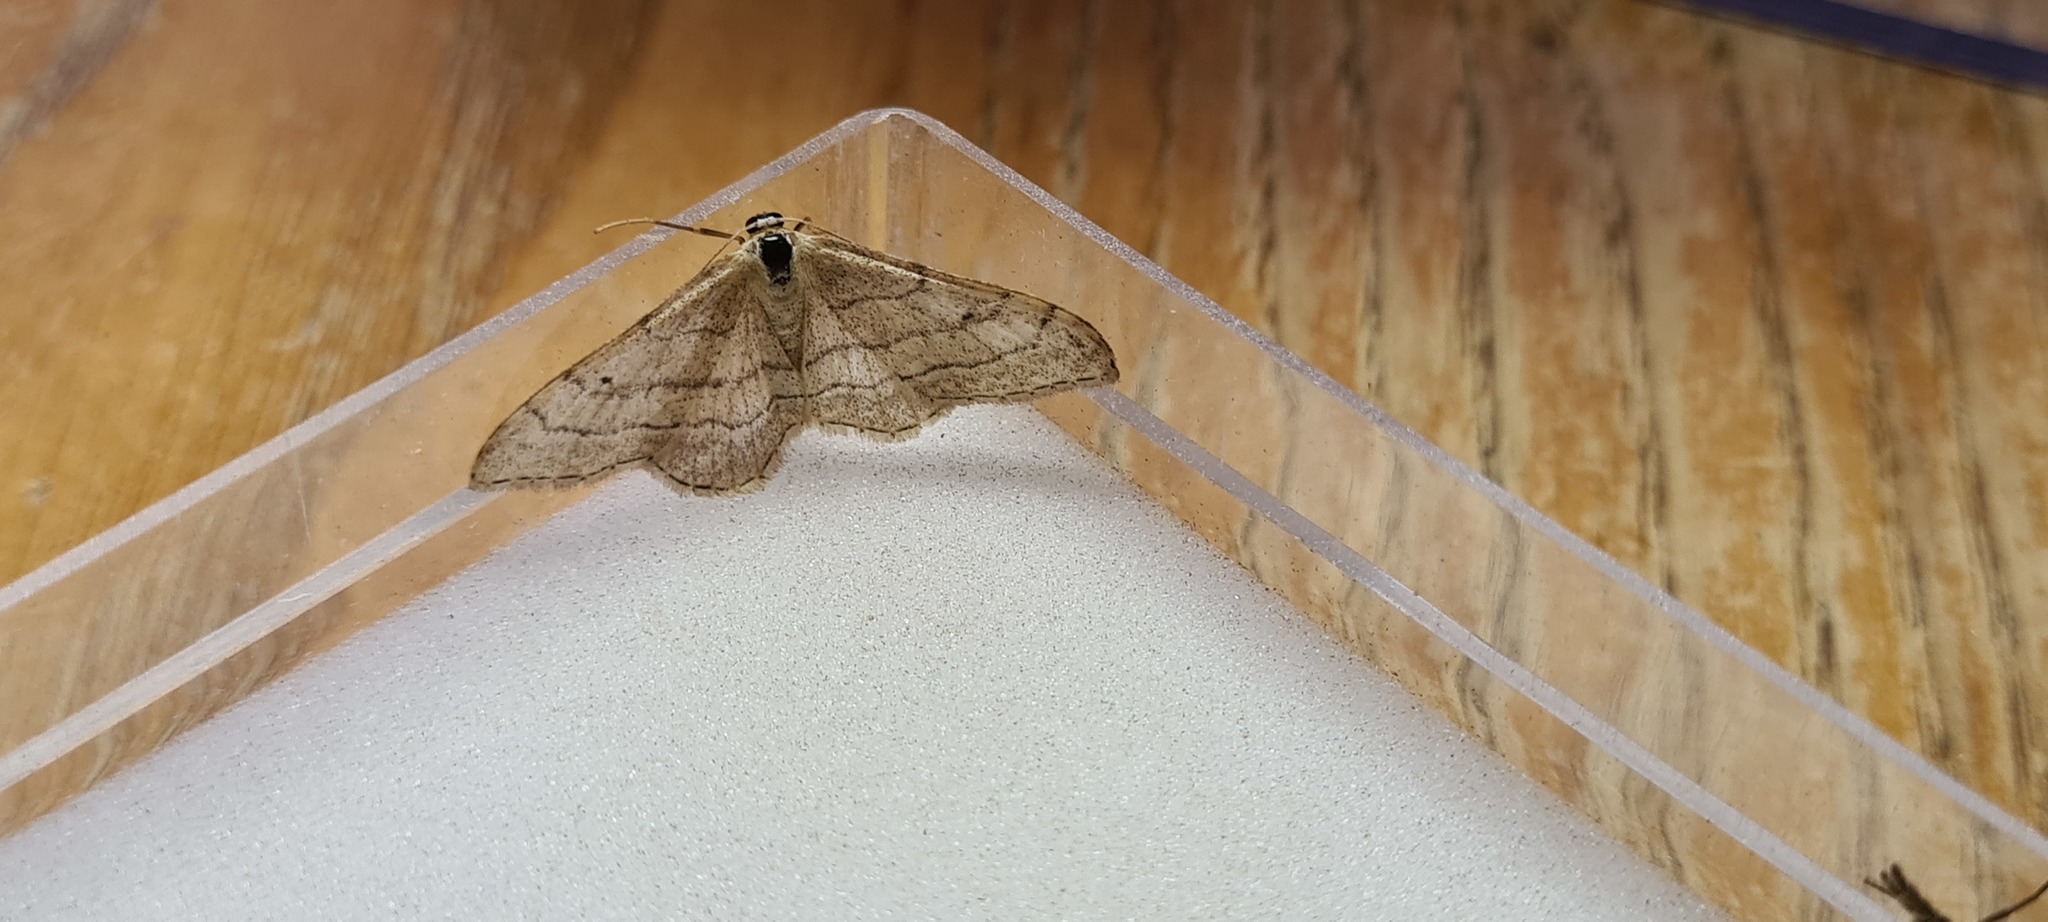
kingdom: Animalia
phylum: Arthropoda
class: Insecta
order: Lepidoptera
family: Geometridae
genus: Idaea
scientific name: Idaea aversata
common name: Riband wave
